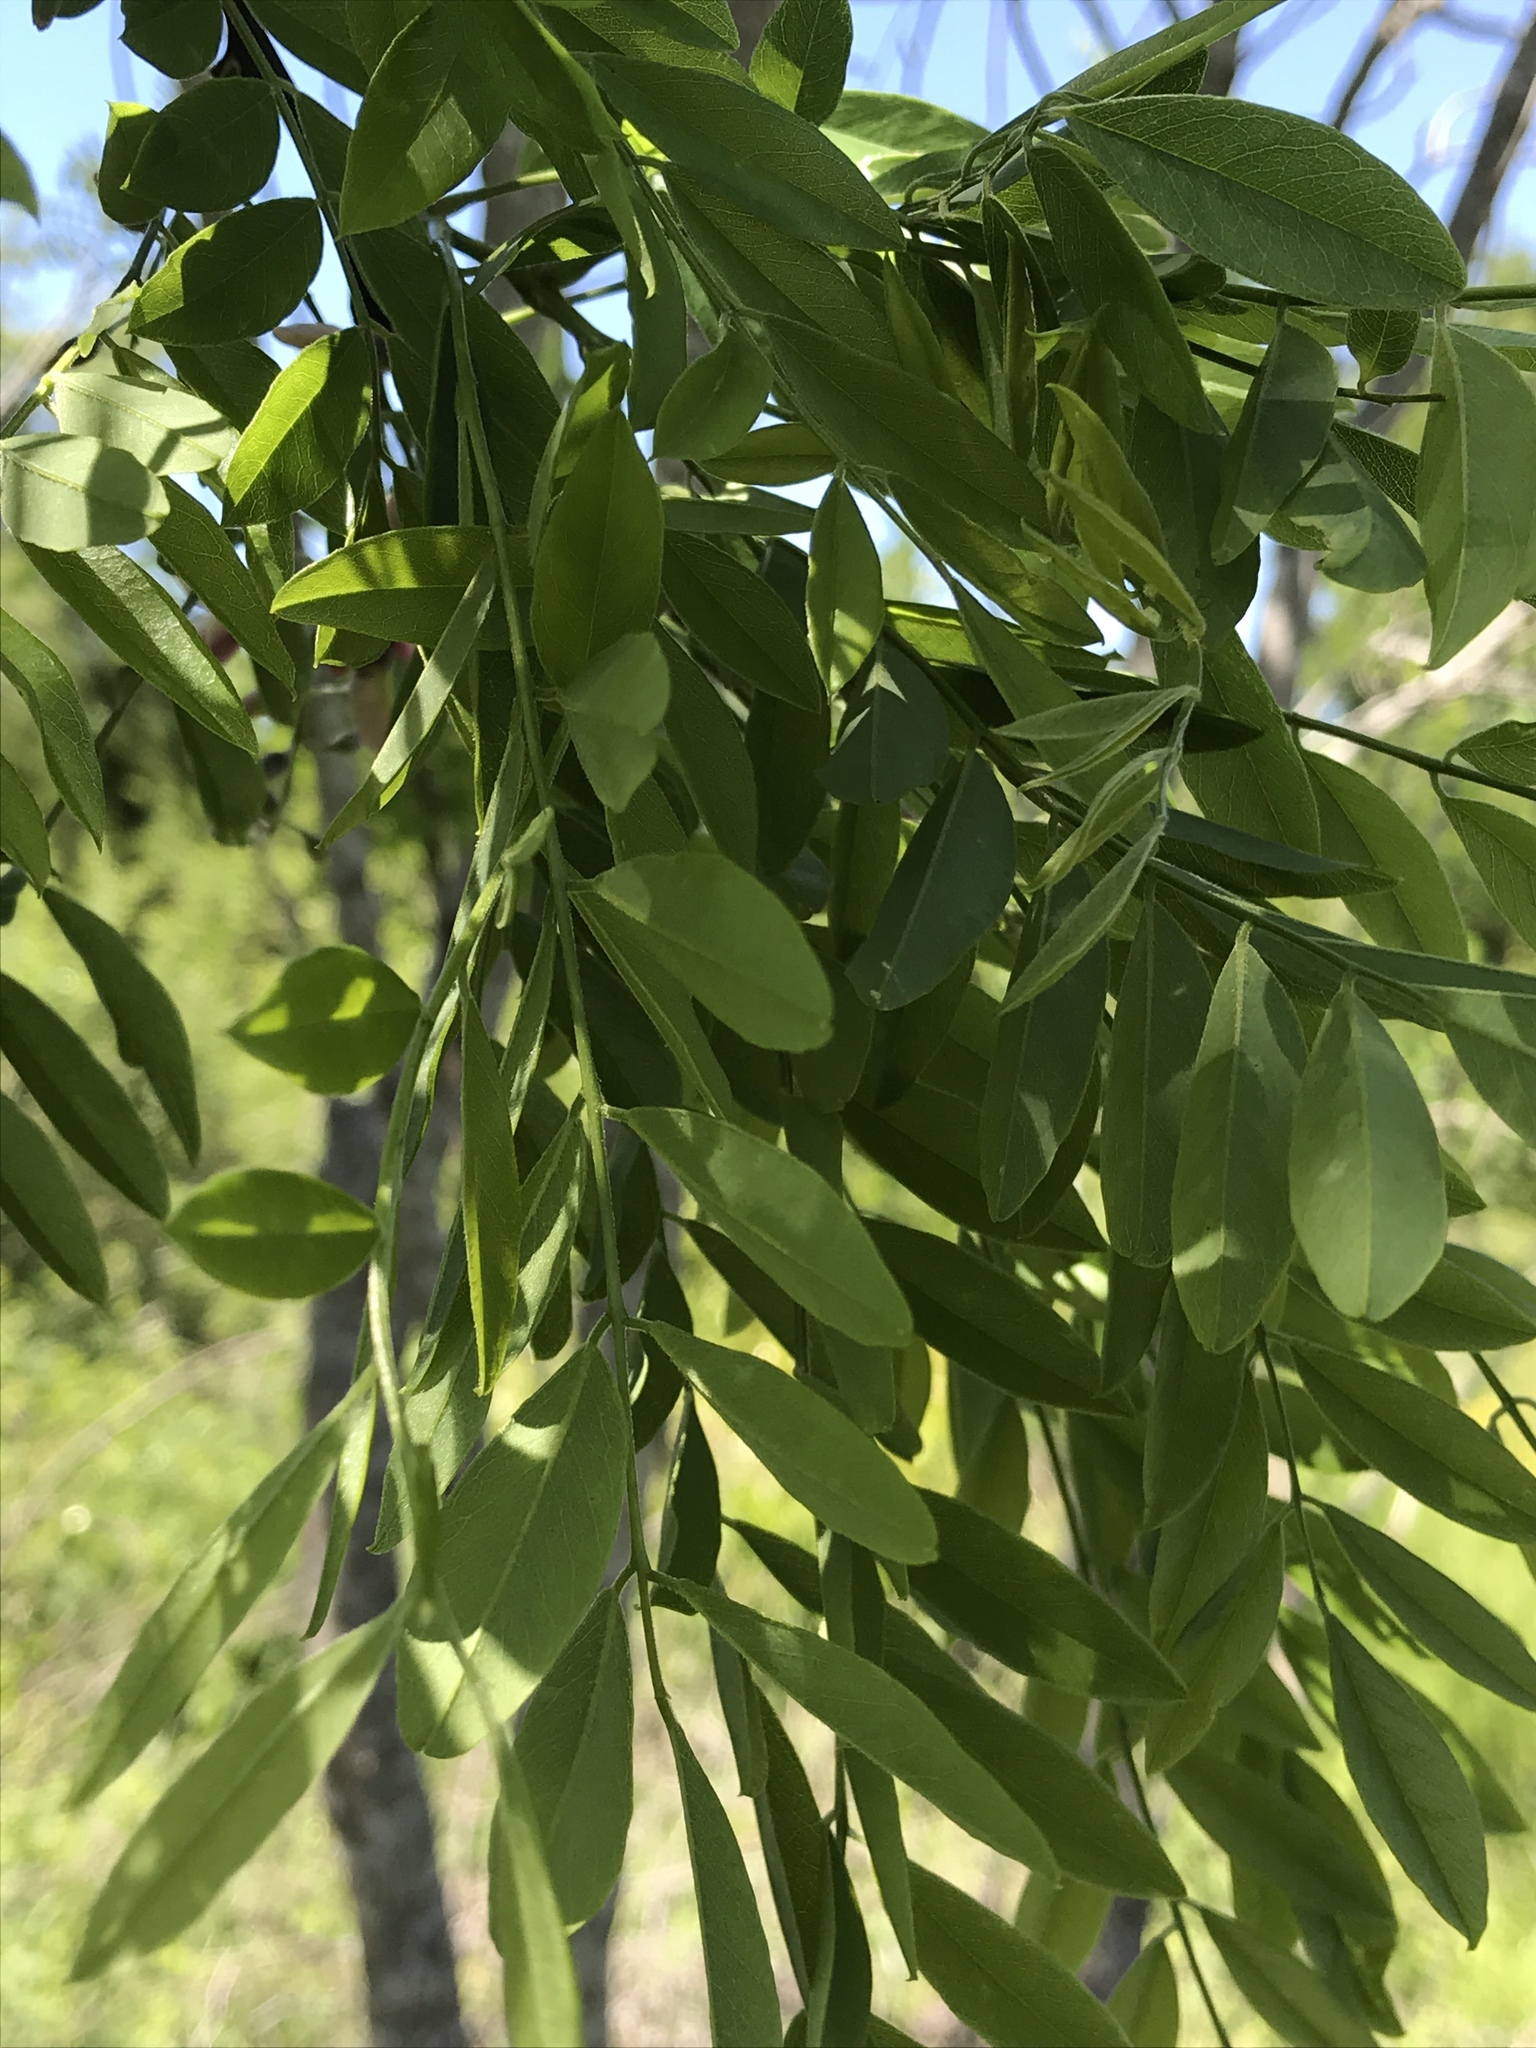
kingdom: Plantae
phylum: Tracheophyta
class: Magnoliopsida
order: Fabales
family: Fabaceae
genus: Styphnolobium
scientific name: Styphnolobium affine
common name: Texas sophora
